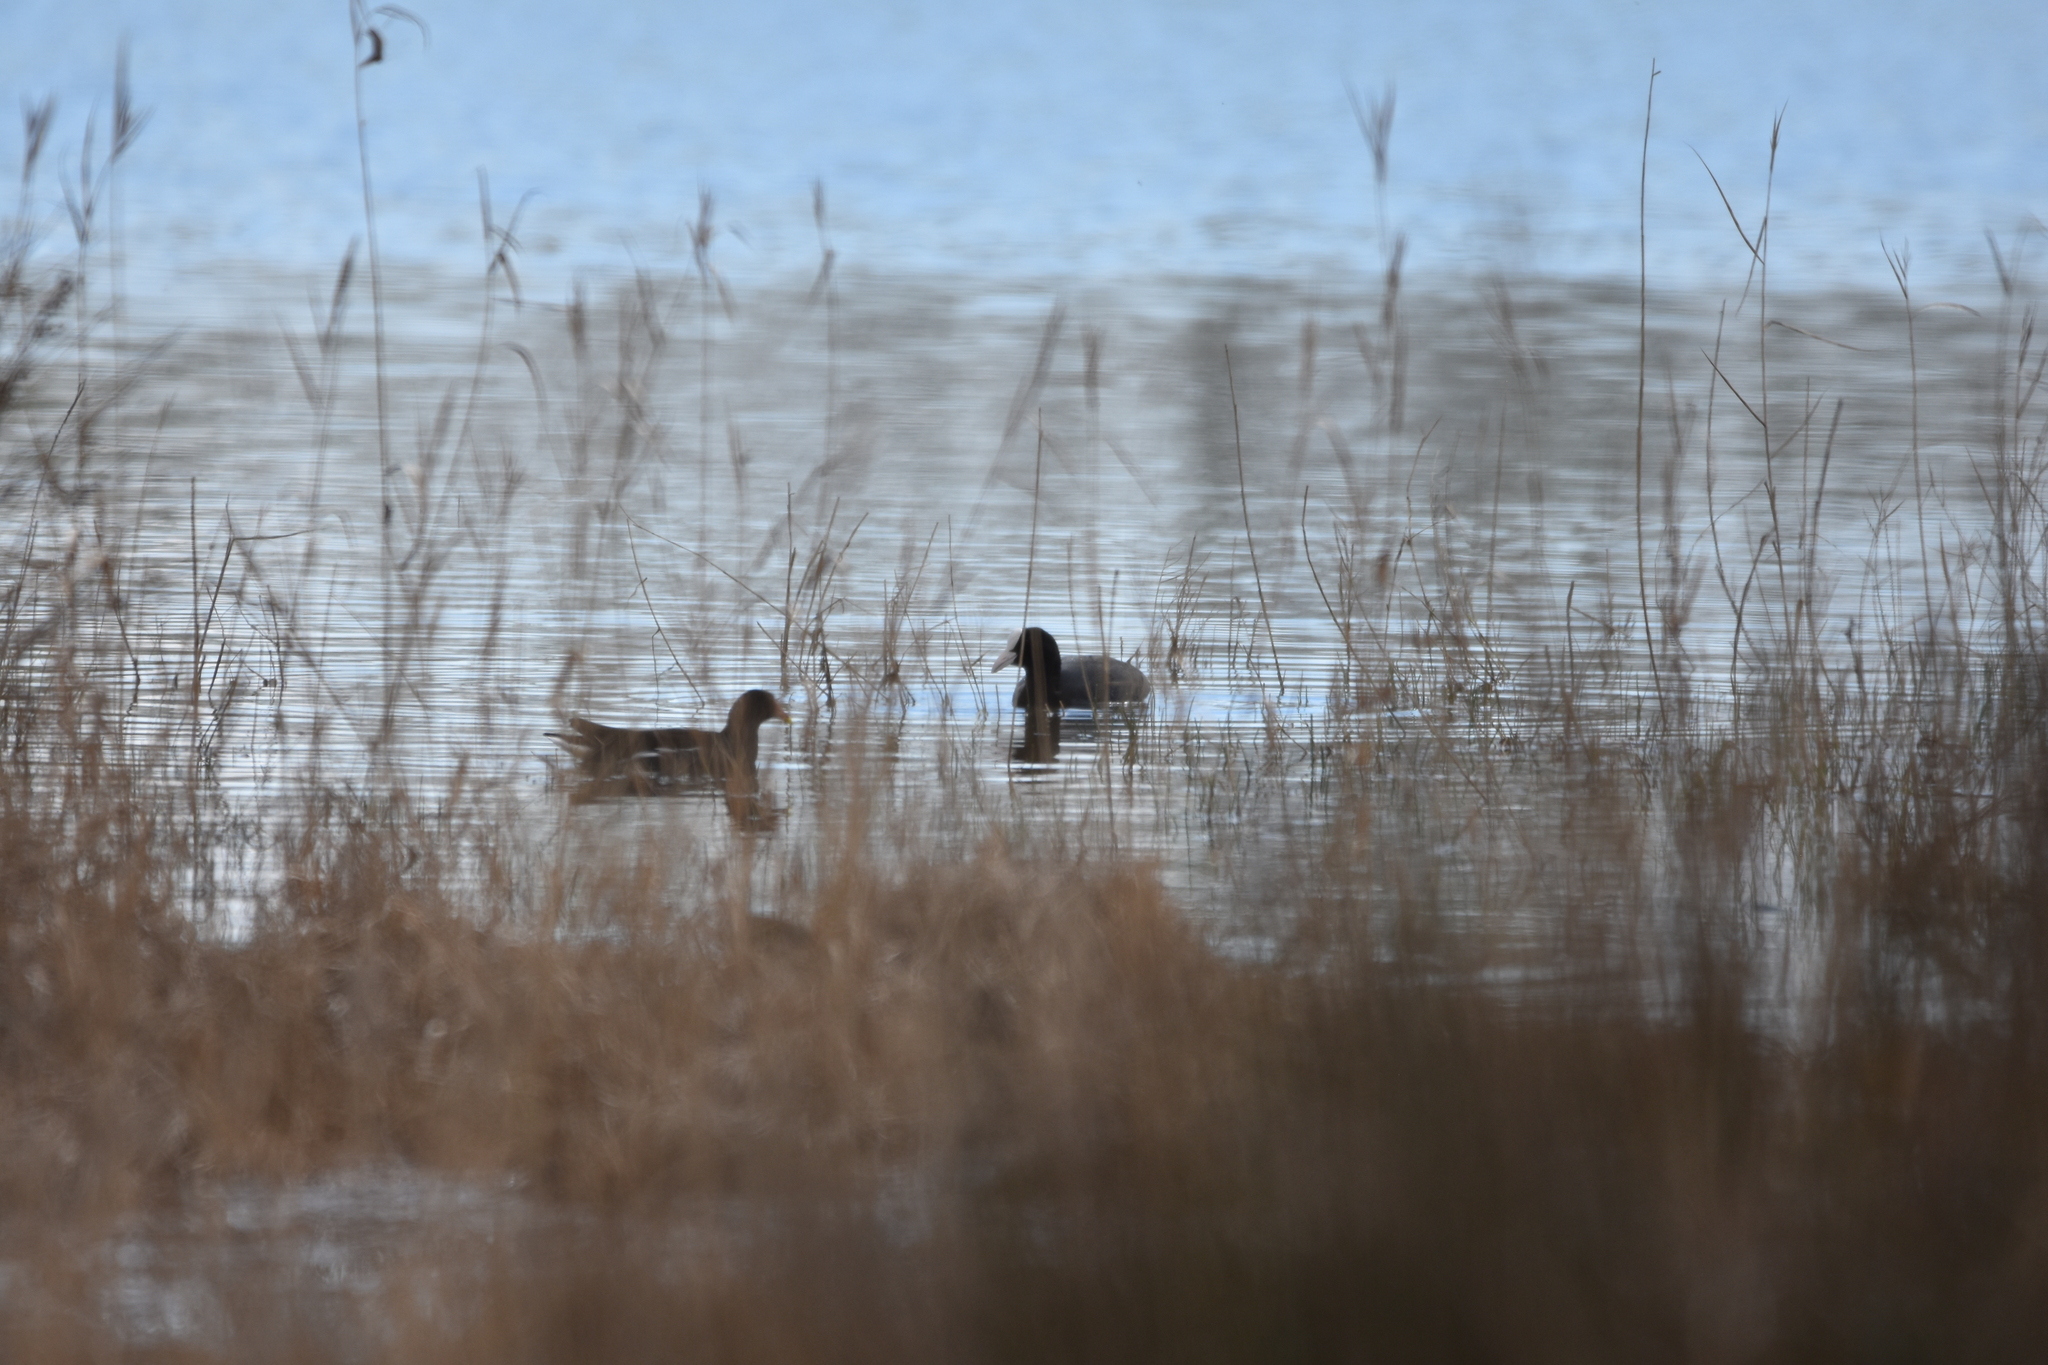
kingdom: Animalia
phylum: Chordata
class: Aves
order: Gruiformes
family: Rallidae
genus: Gallinula
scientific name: Gallinula chloropus
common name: Common moorhen
